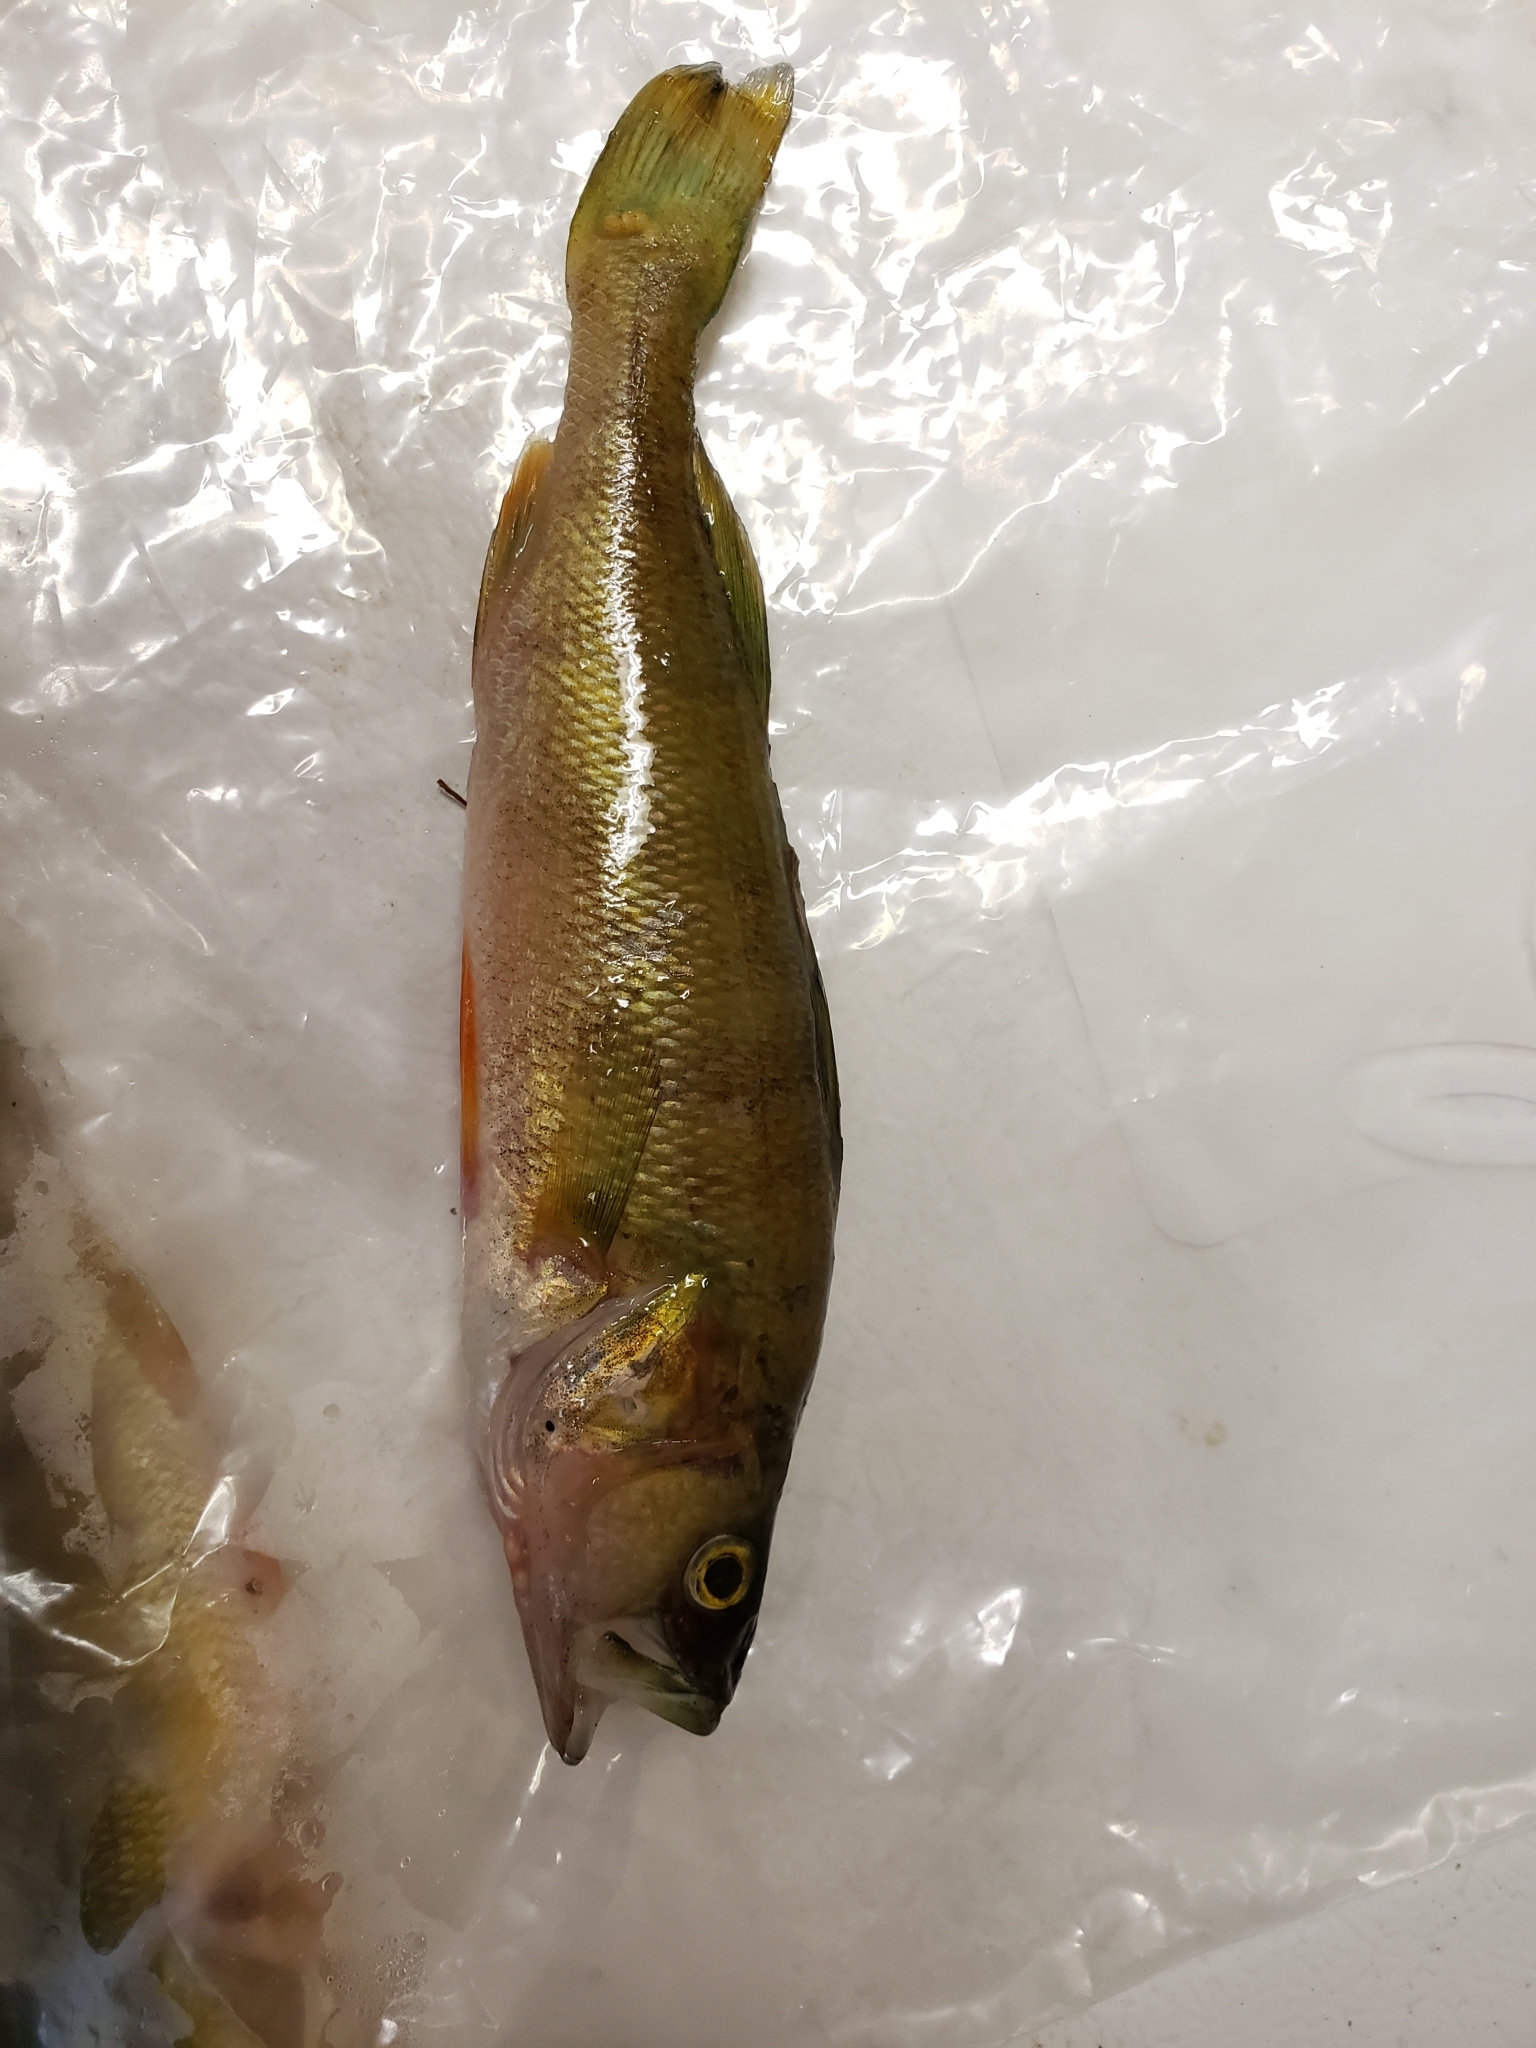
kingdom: Animalia
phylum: Chordata
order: Perciformes
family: Percidae
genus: Perca
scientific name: Perca flavescens
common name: Yellow perch
